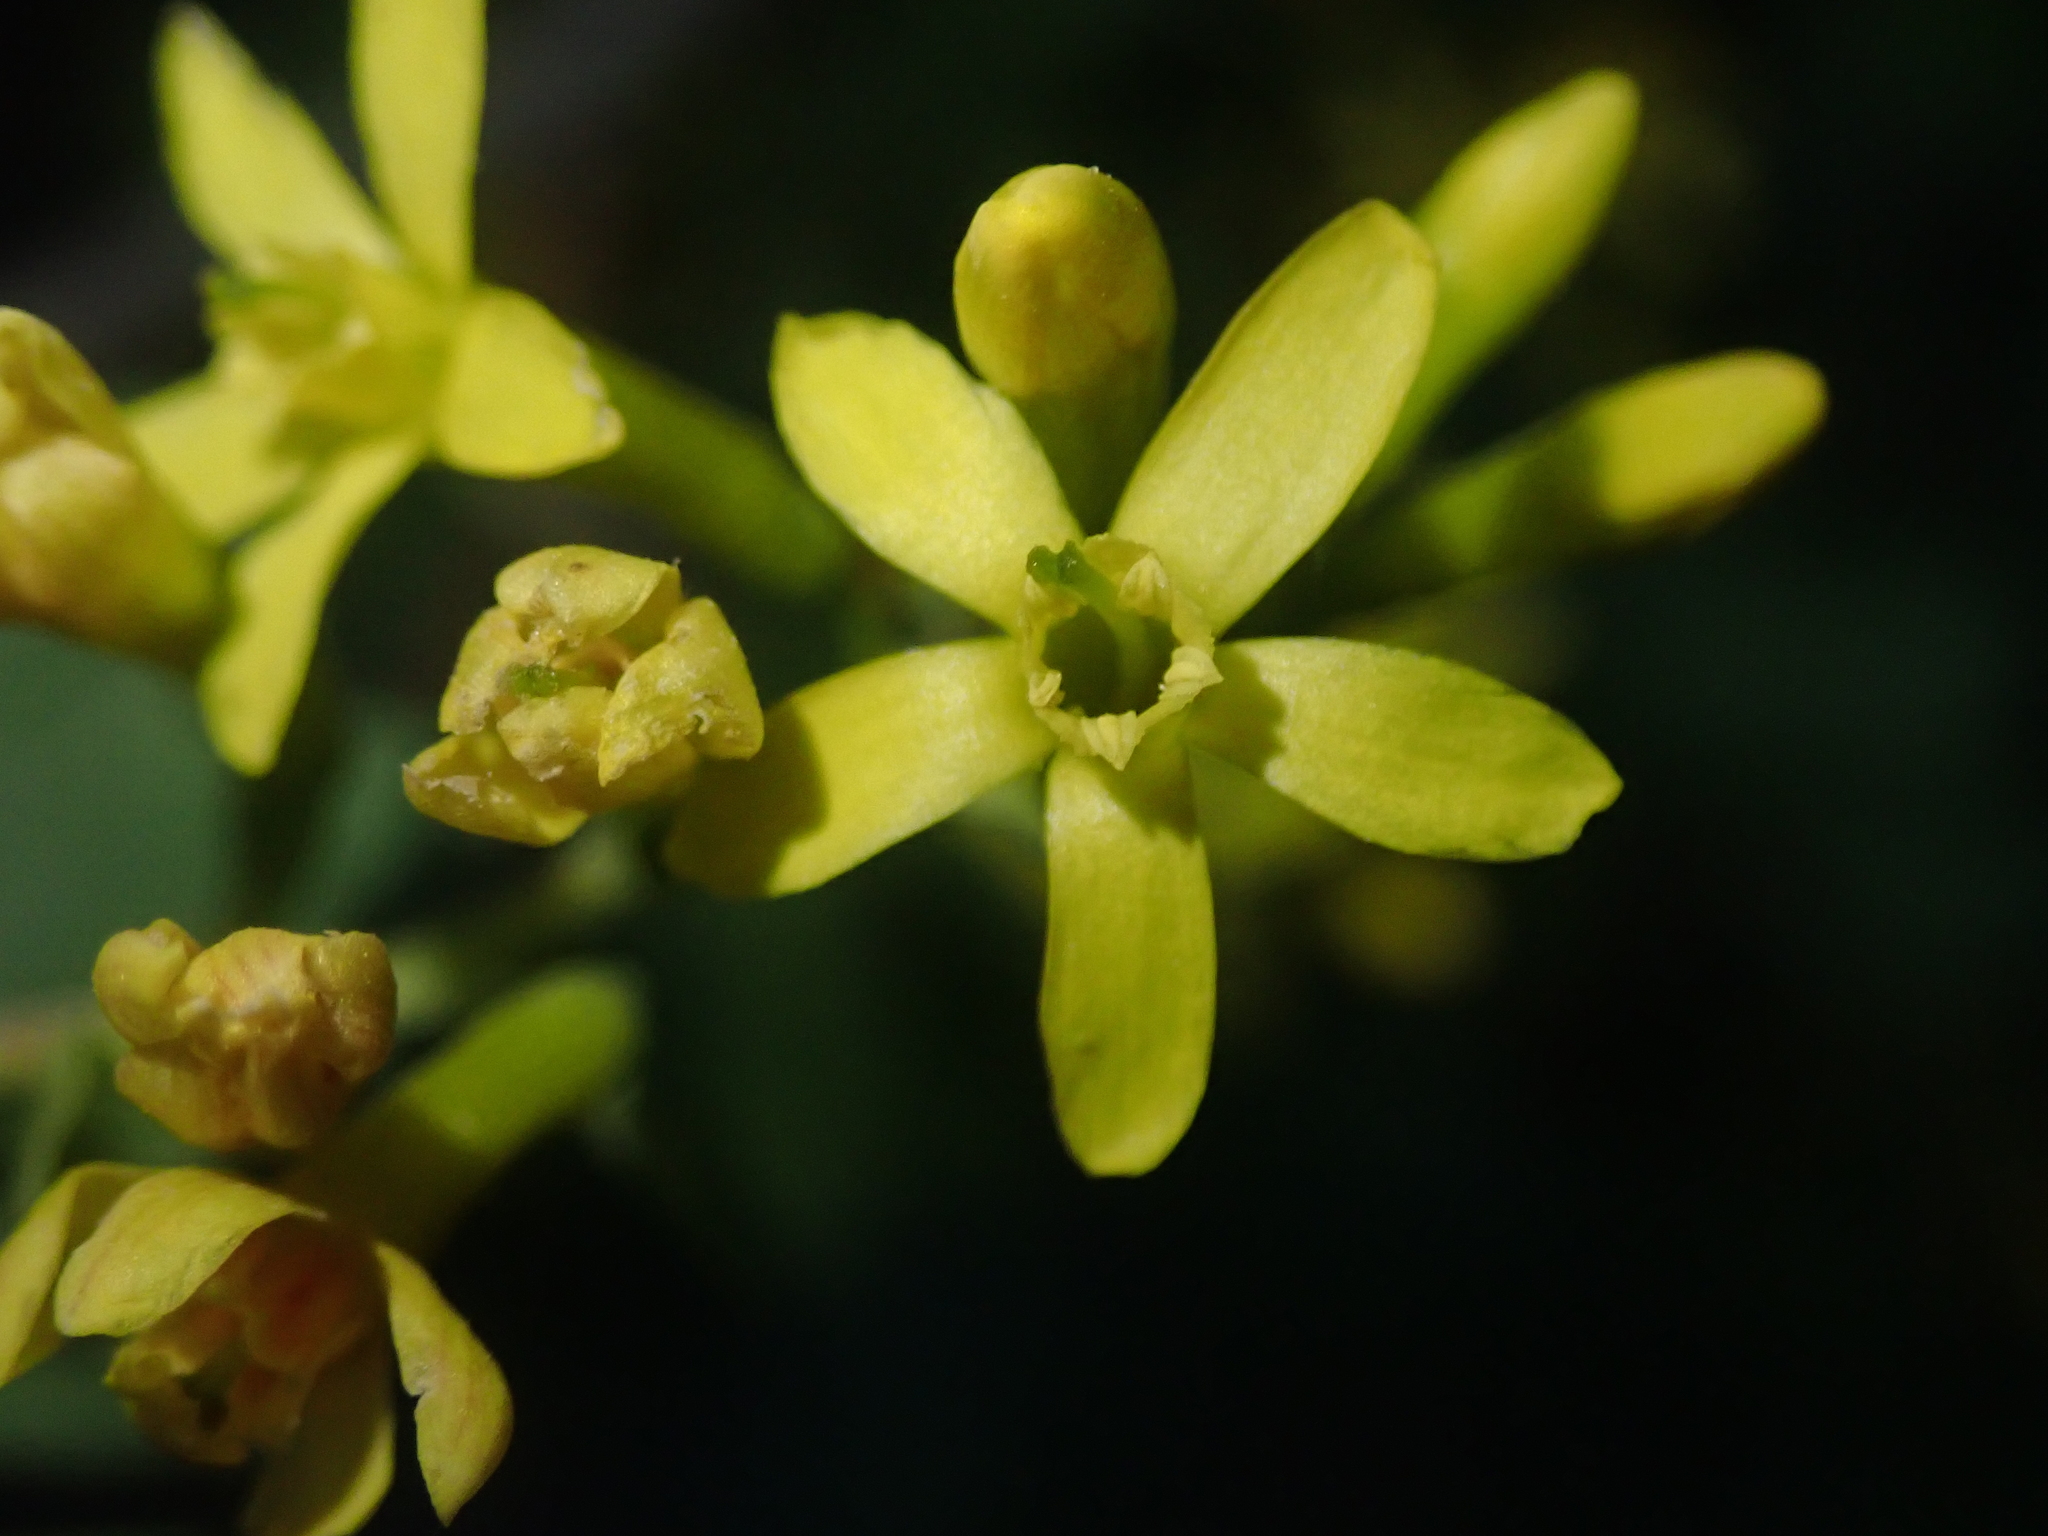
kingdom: Plantae
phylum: Tracheophyta
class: Magnoliopsida
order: Saxifragales
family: Grossulariaceae
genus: Ribes
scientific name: Ribes aureum
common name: Golden currant
